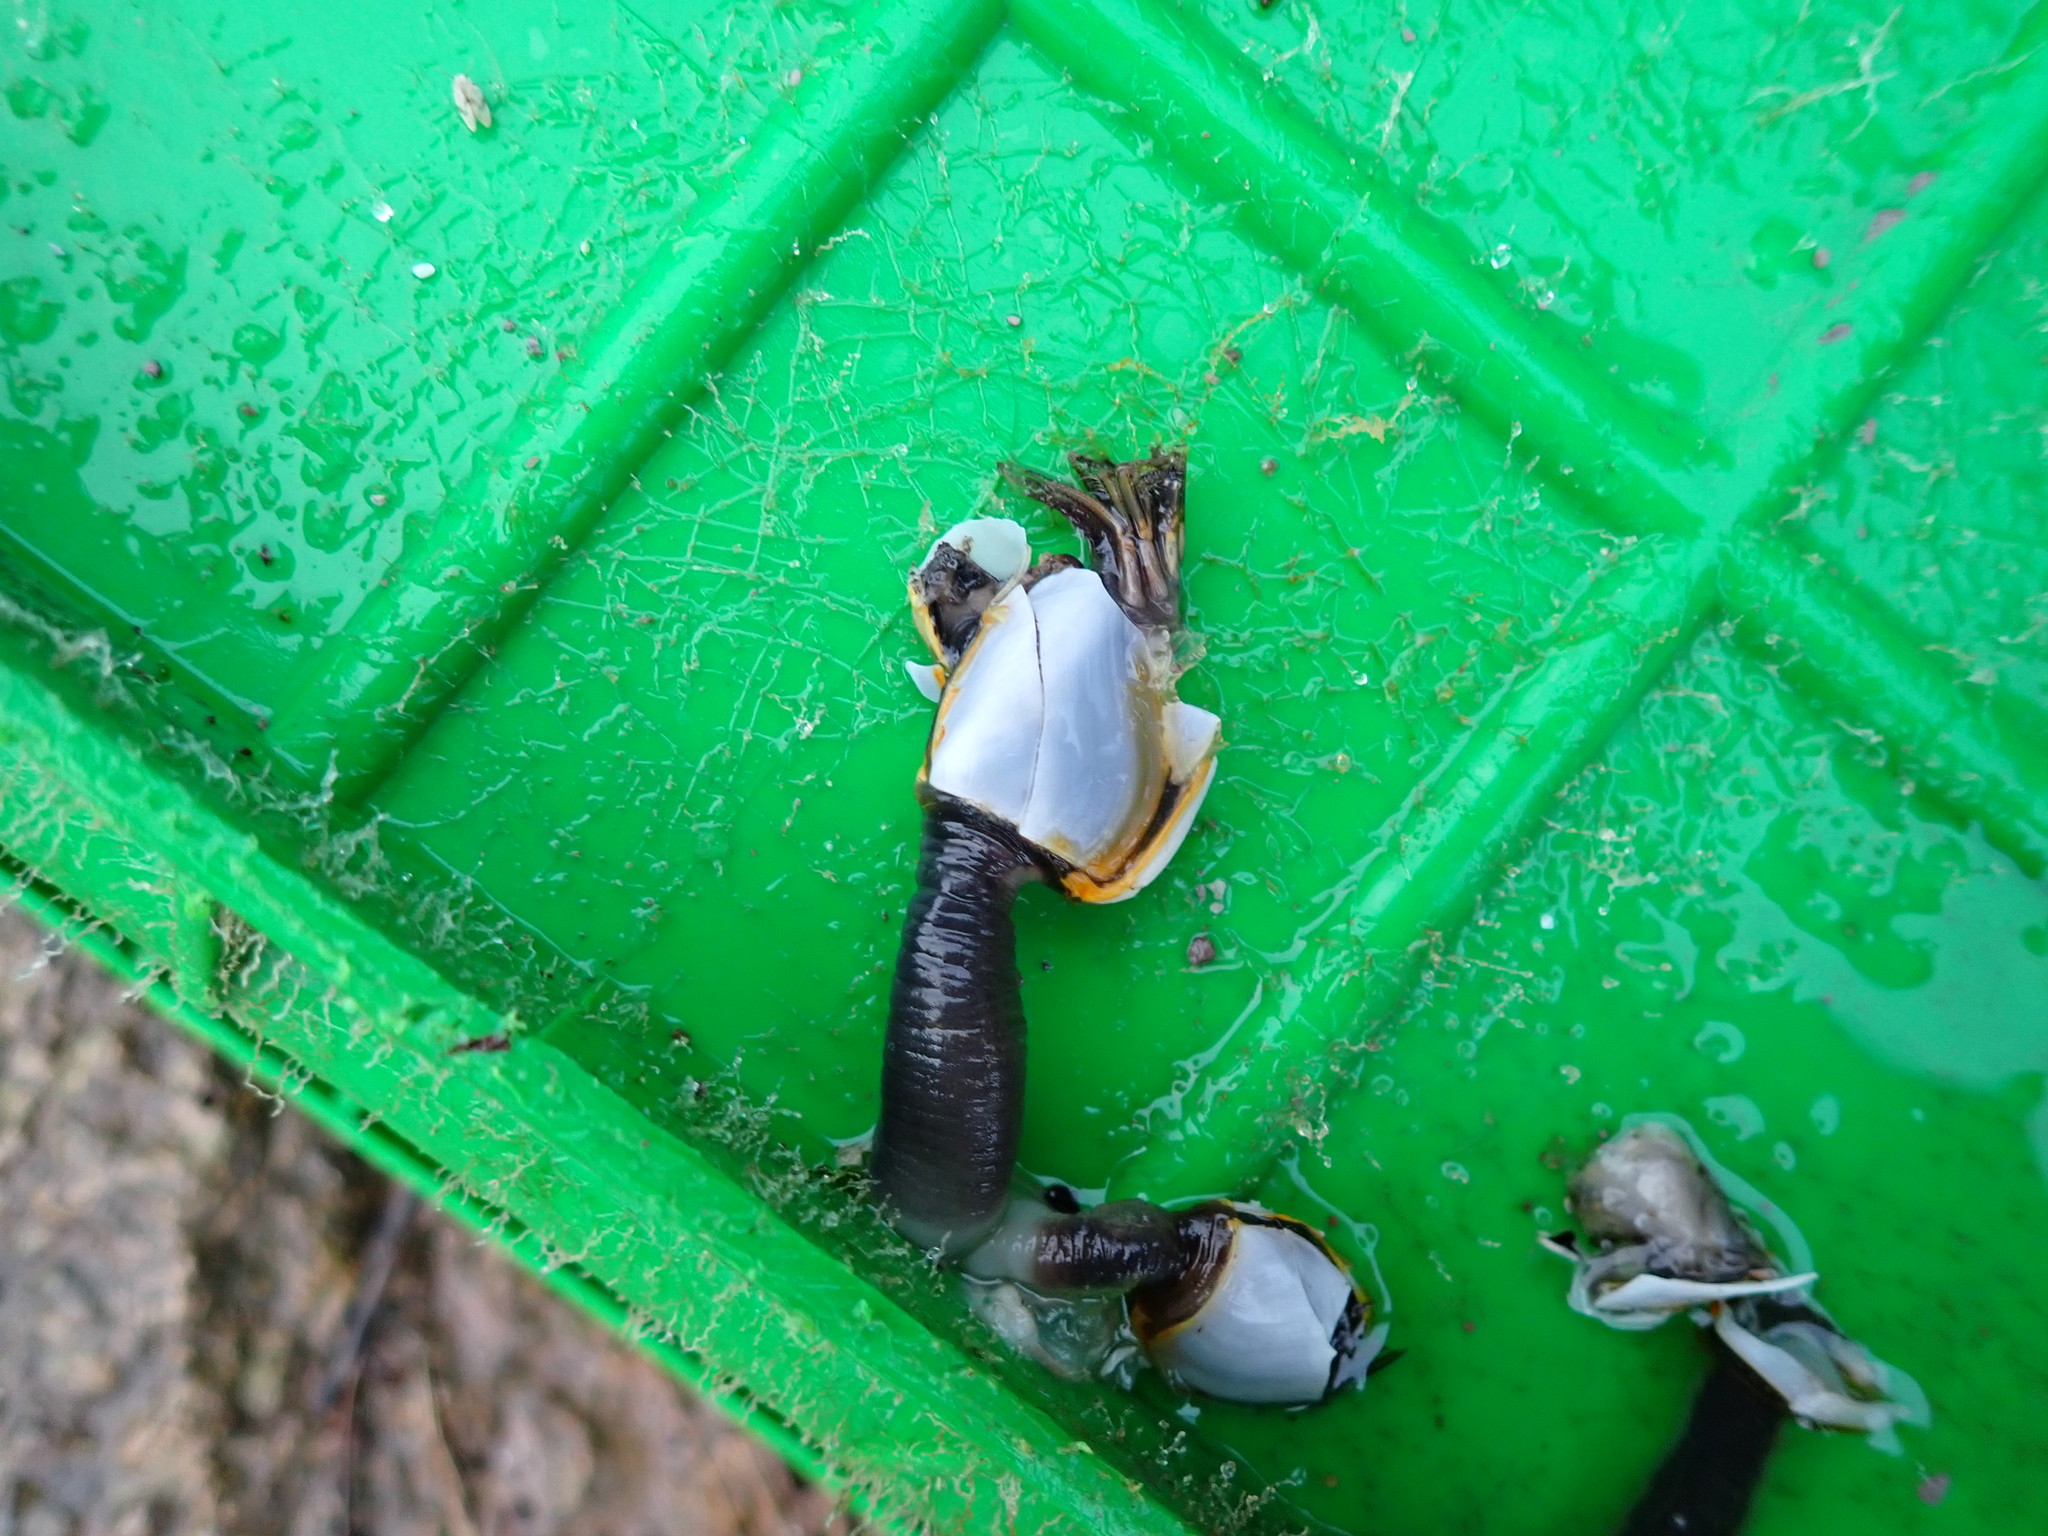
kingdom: Animalia
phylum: Arthropoda
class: Maxillopoda
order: Pedunculata
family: Lepadidae
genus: Lepas
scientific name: Lepas anatifera
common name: Common goose barnacle
